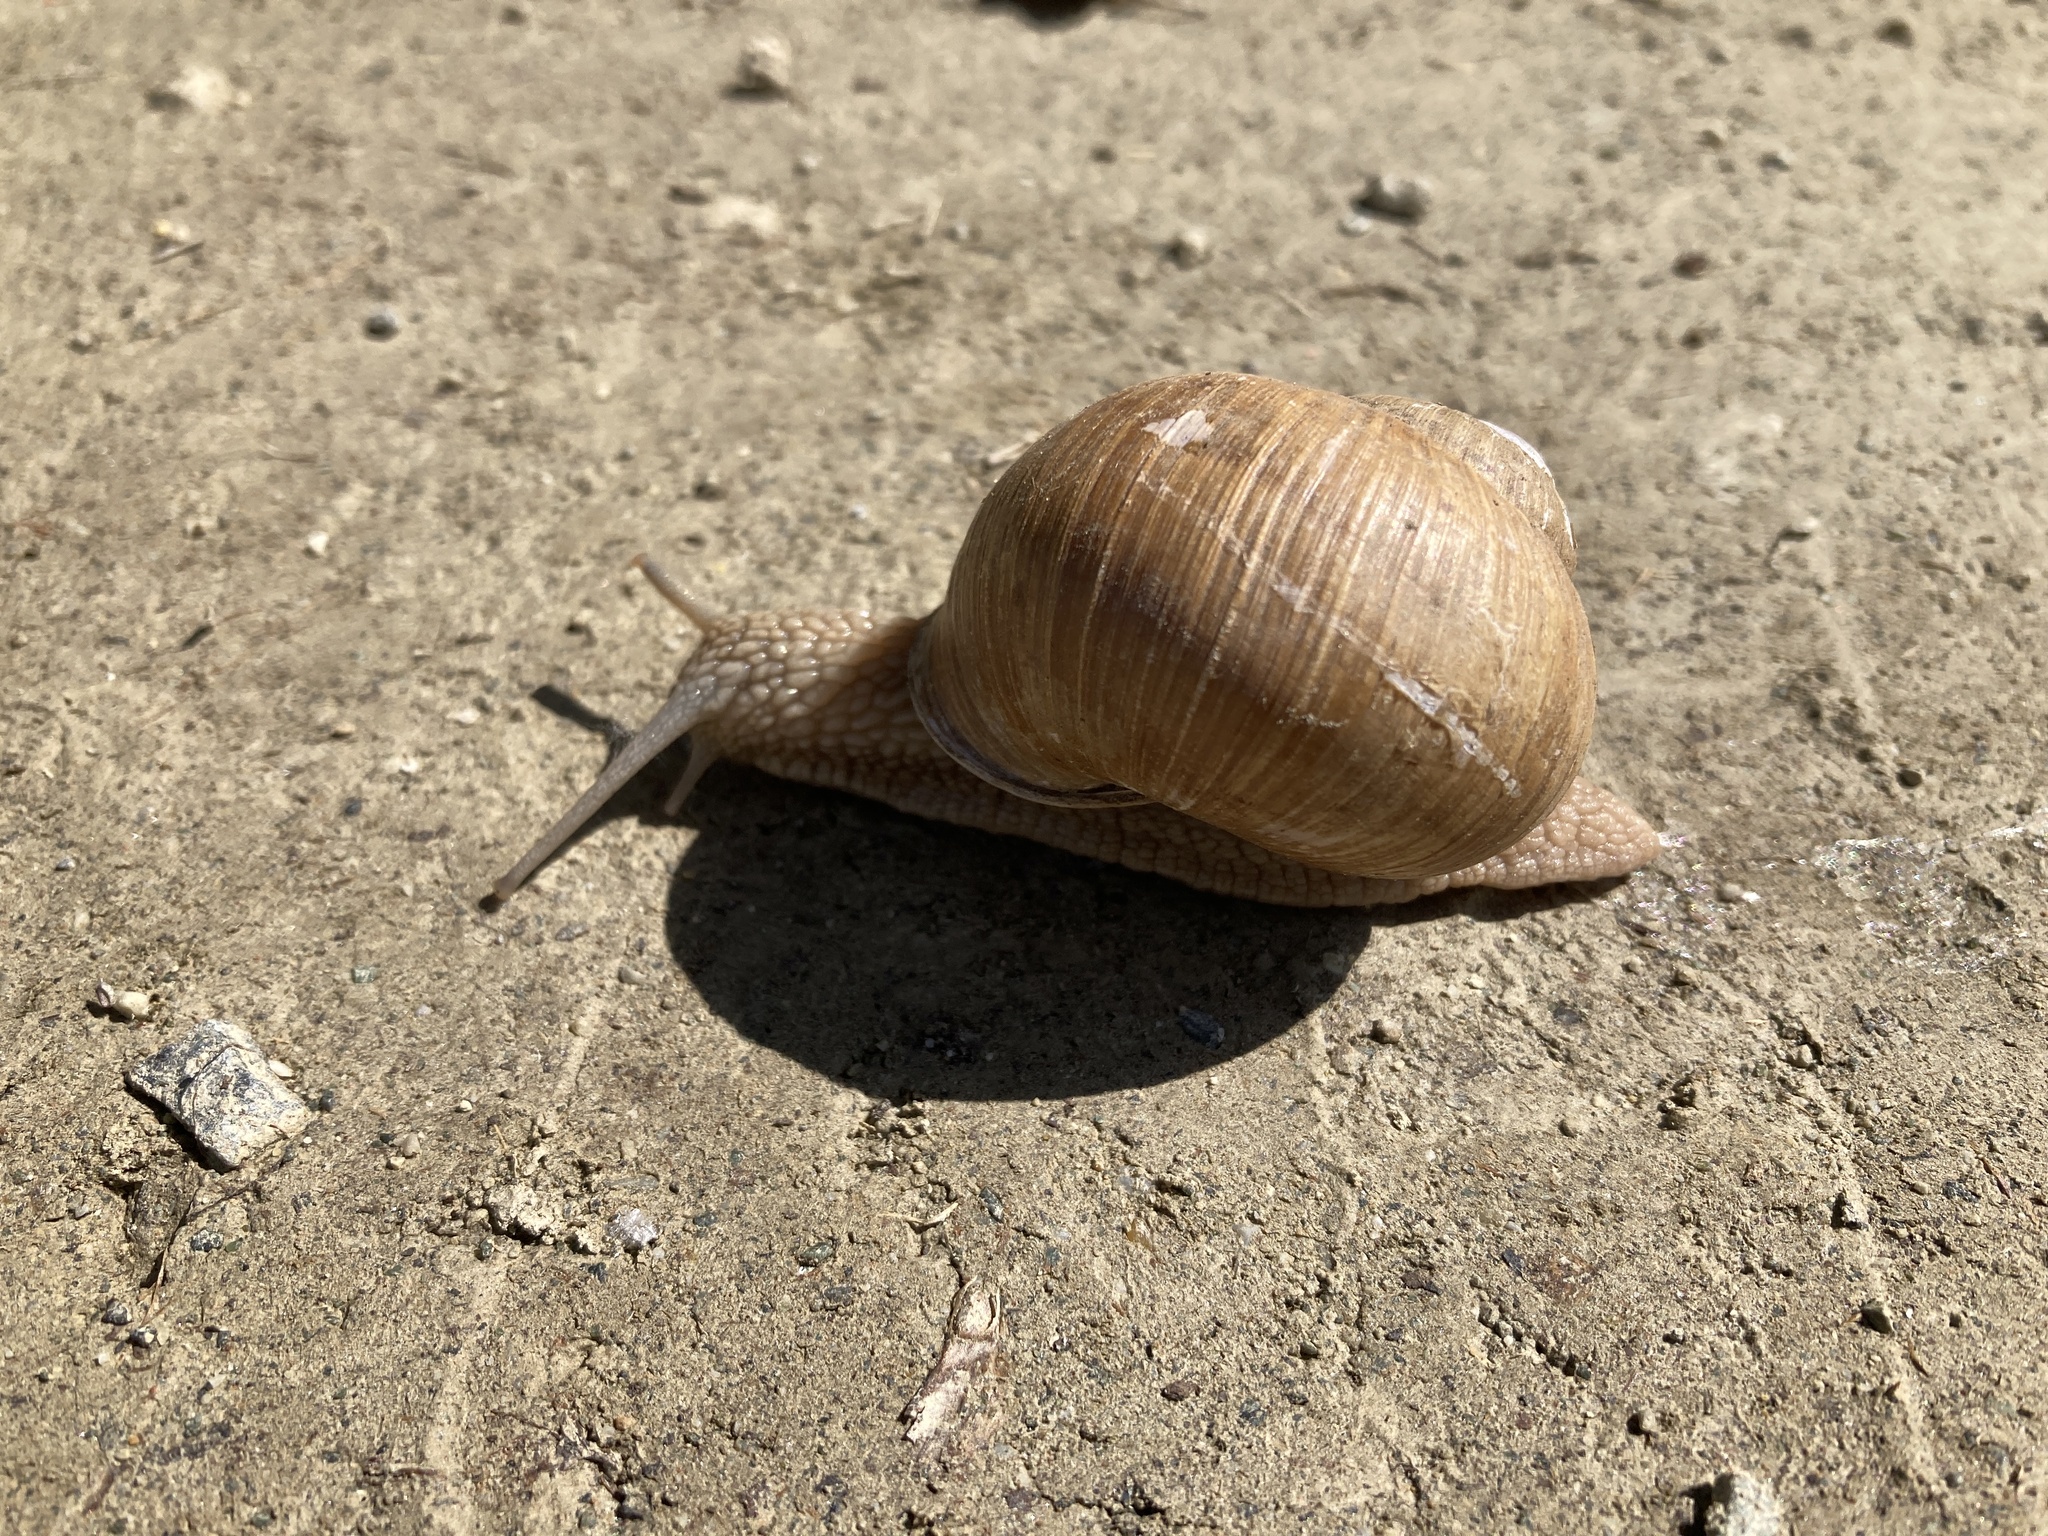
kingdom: Animalia
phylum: Mollusca
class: Gastropoda
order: Stylommatophora
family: Helicidae
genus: Helix
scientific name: Helix pomatia
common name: Roman snail
